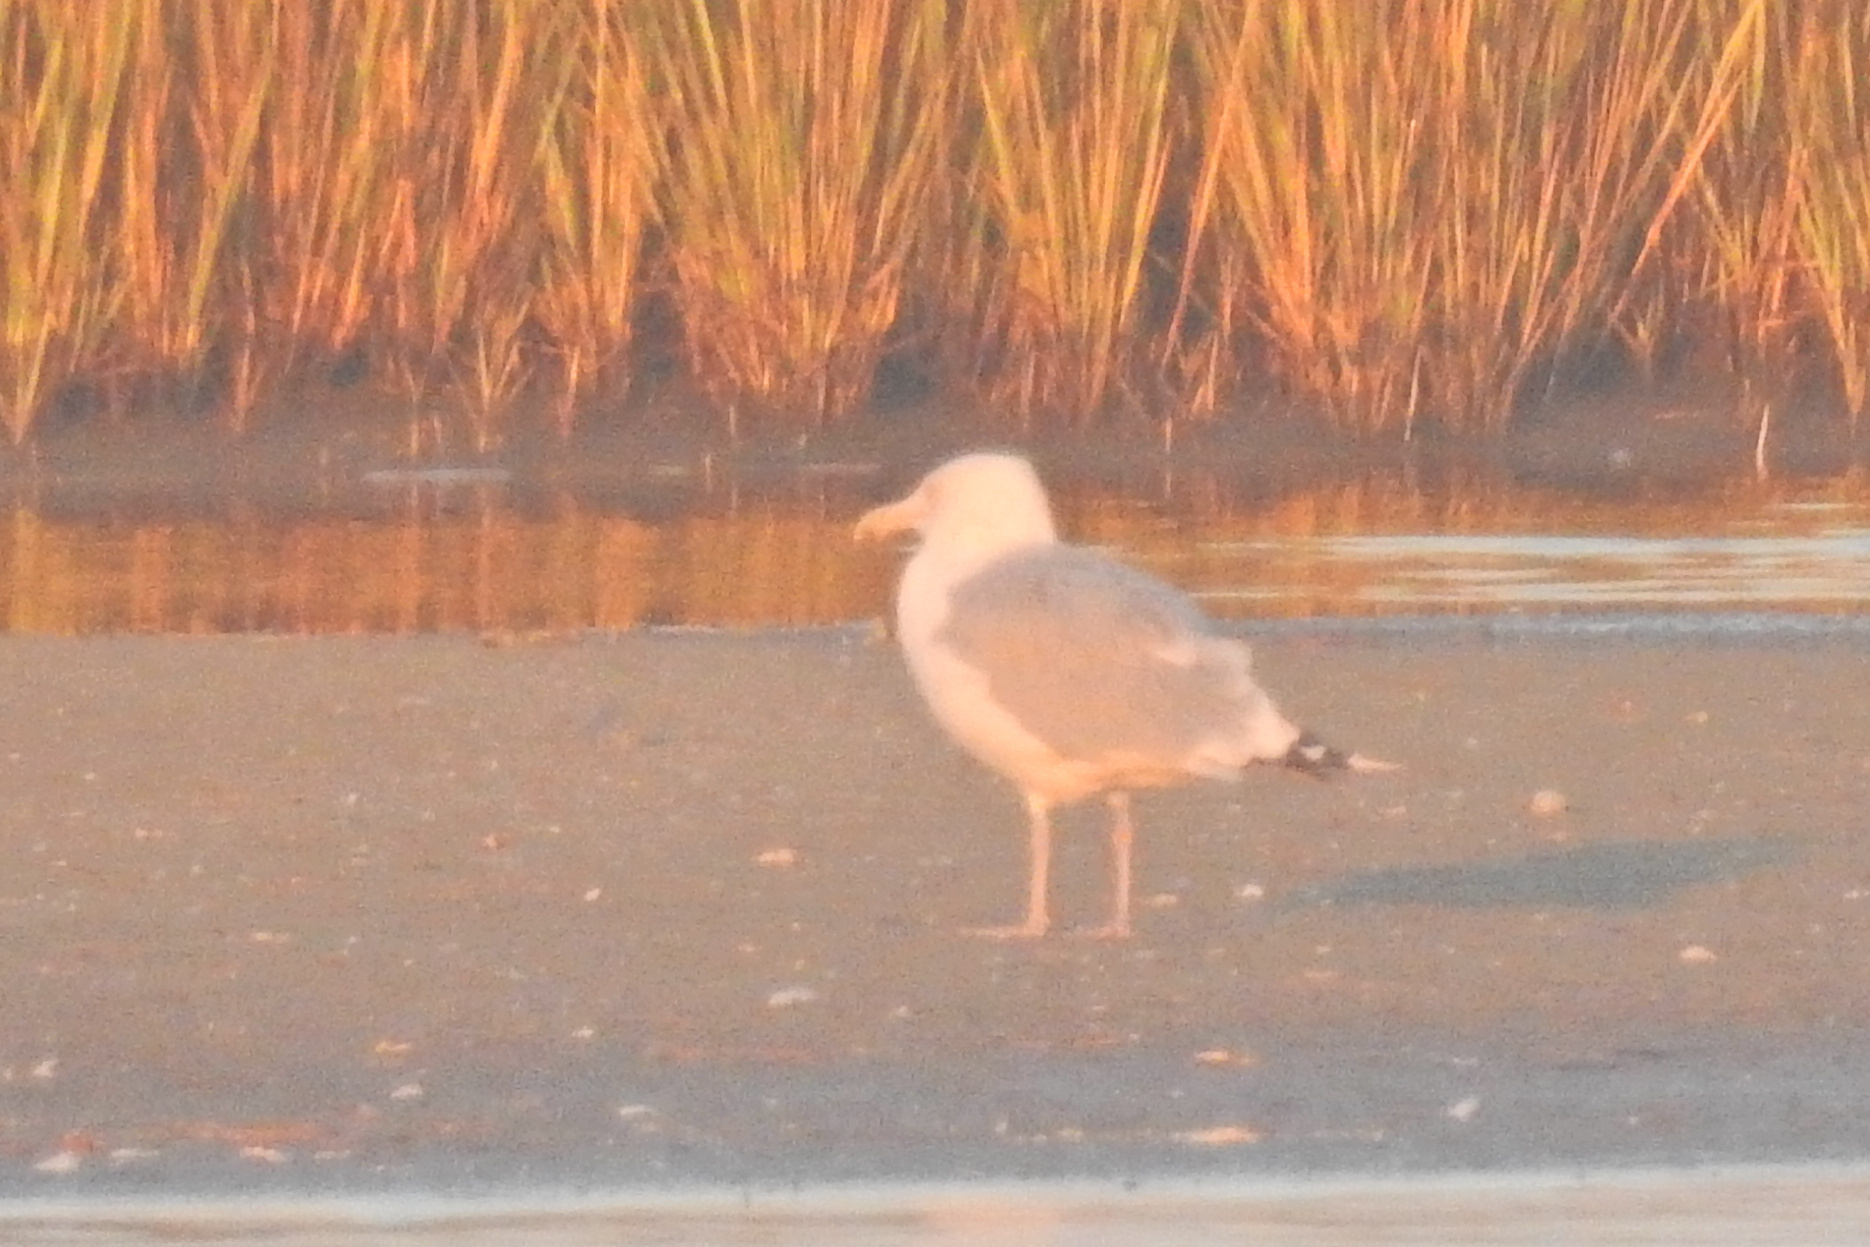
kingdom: Animalia
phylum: Chordata
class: Aves
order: Charadriiformes
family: Laridae
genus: Larus
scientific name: Larus argentatus
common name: Herring gull
